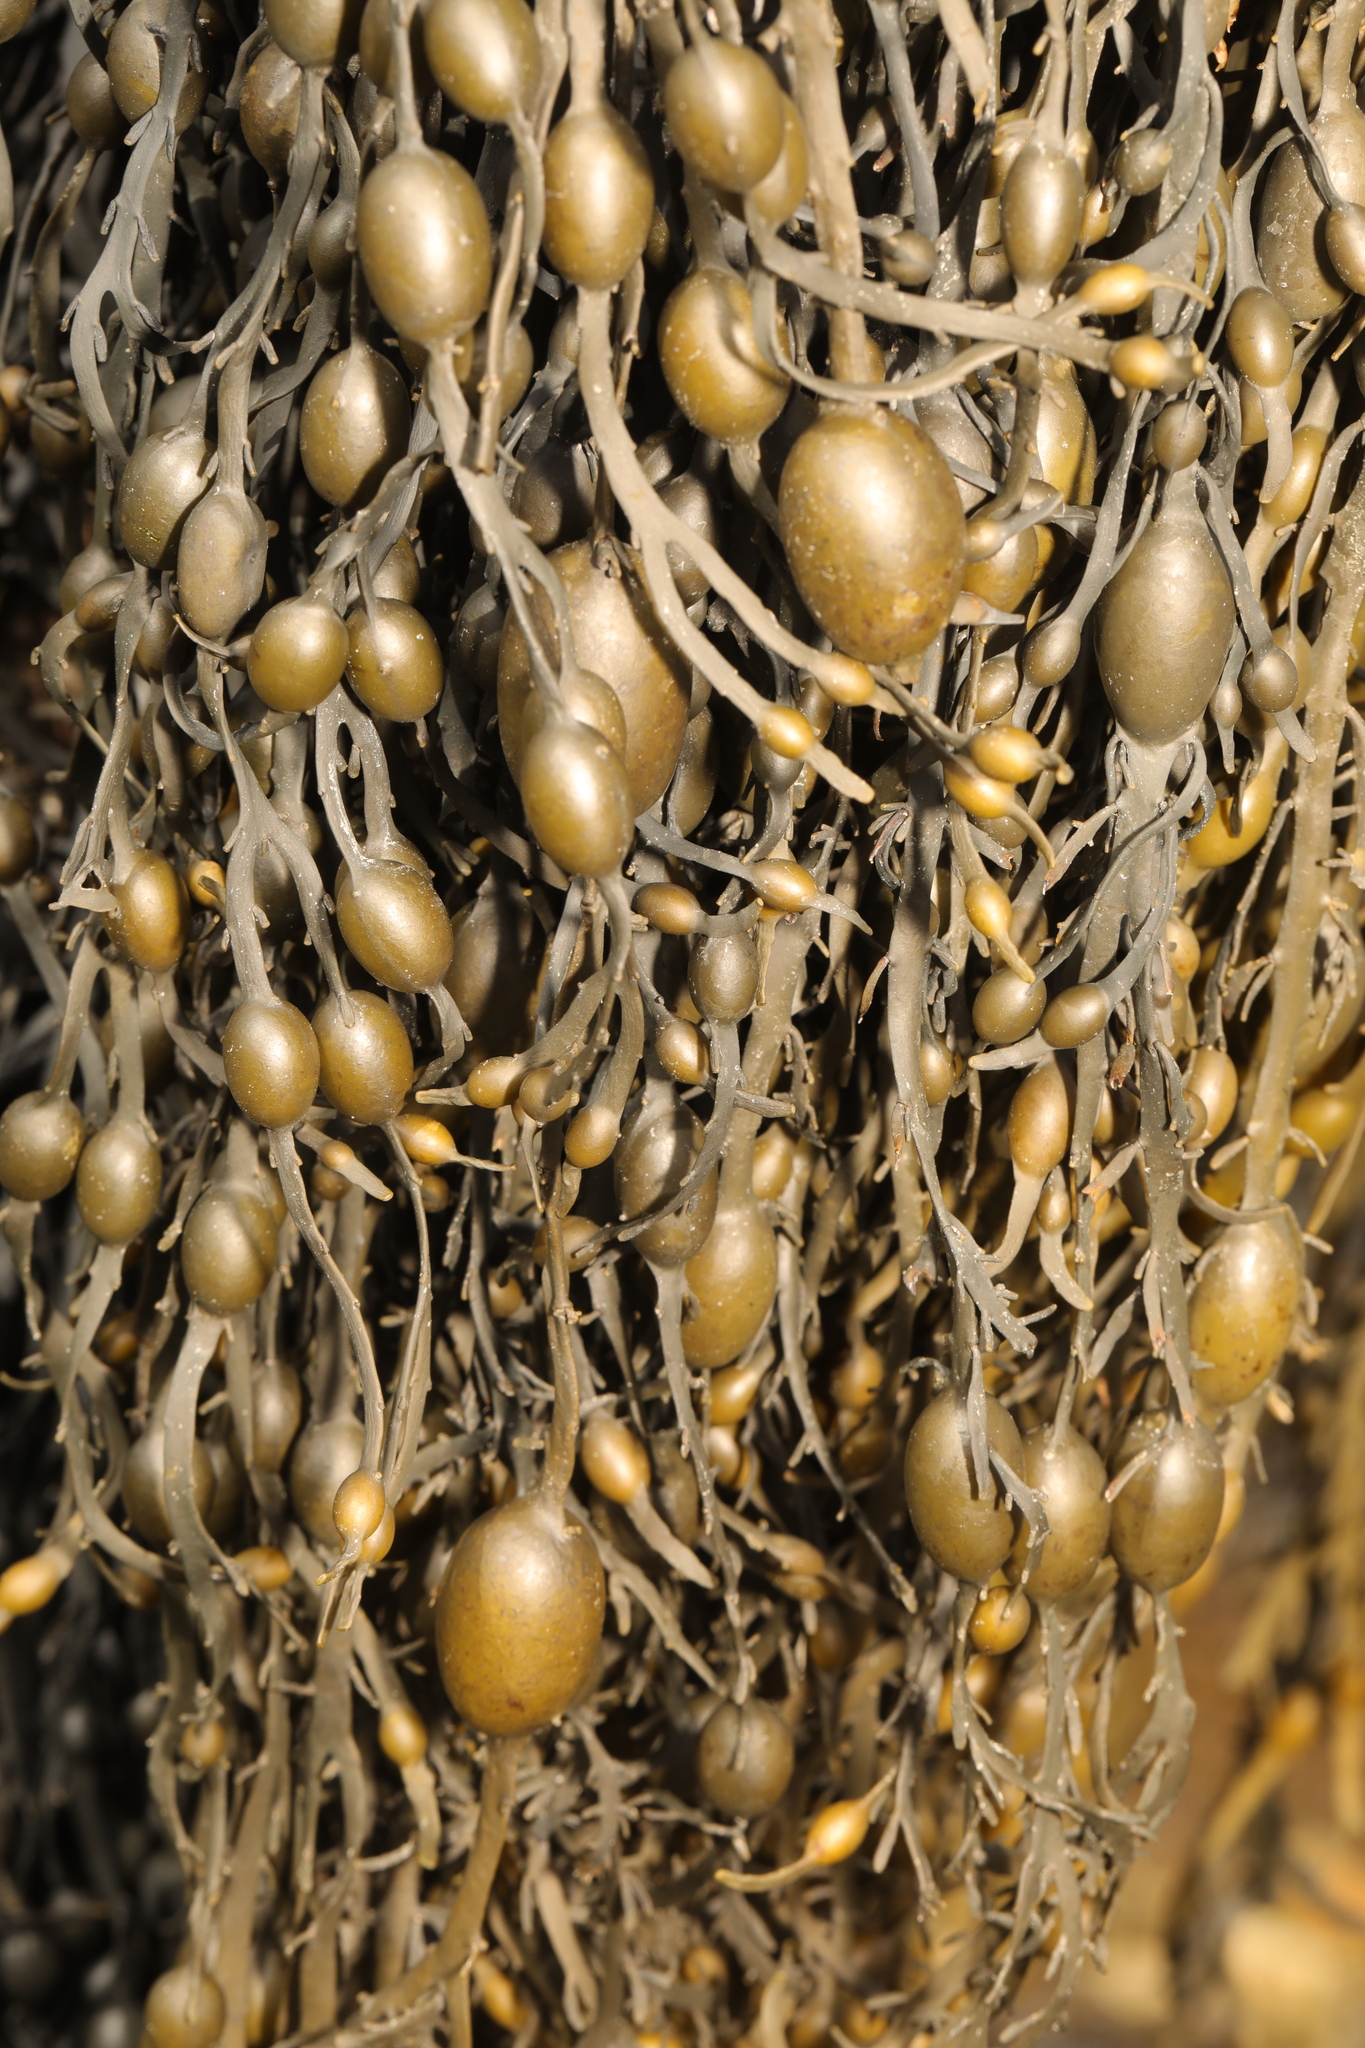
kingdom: Chromista
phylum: Ochrophyta
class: Phaeophyceae
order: Fucales
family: Fucaceae
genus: Ascophyllum
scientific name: Ascophyllum nodosum
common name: Knotted wrack
